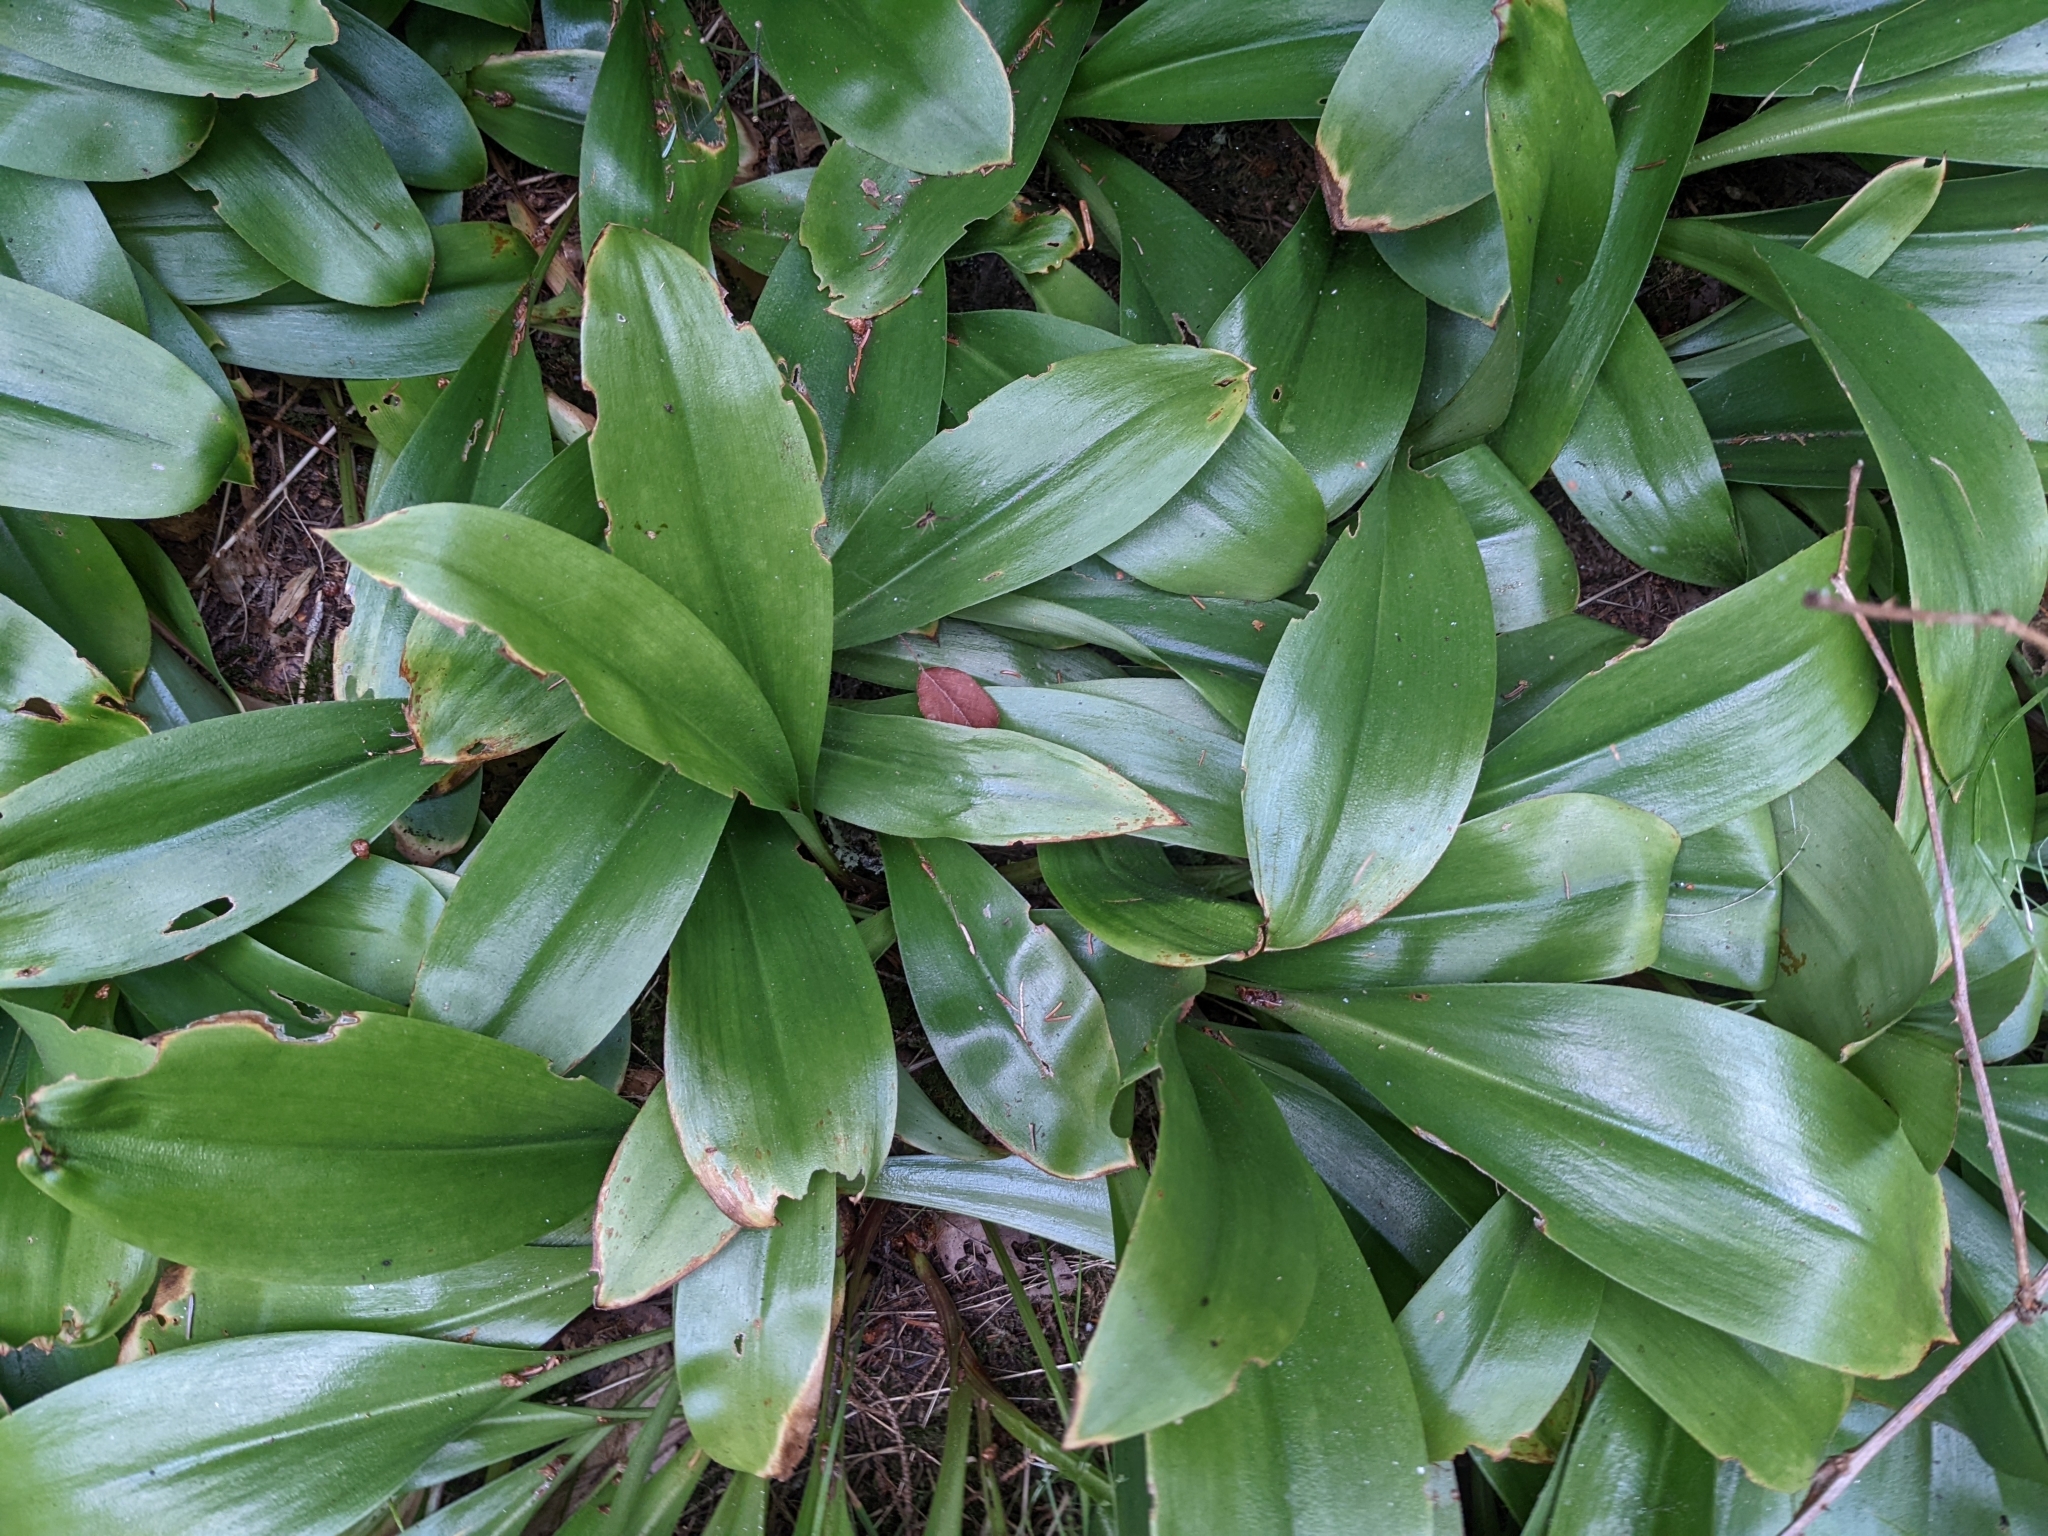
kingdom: Plantae
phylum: Tracheophyta
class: Liliopsida
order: Liliales
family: Liliaceae
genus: Clintonia
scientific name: Clintonia borealis
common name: Yellow clintonia
